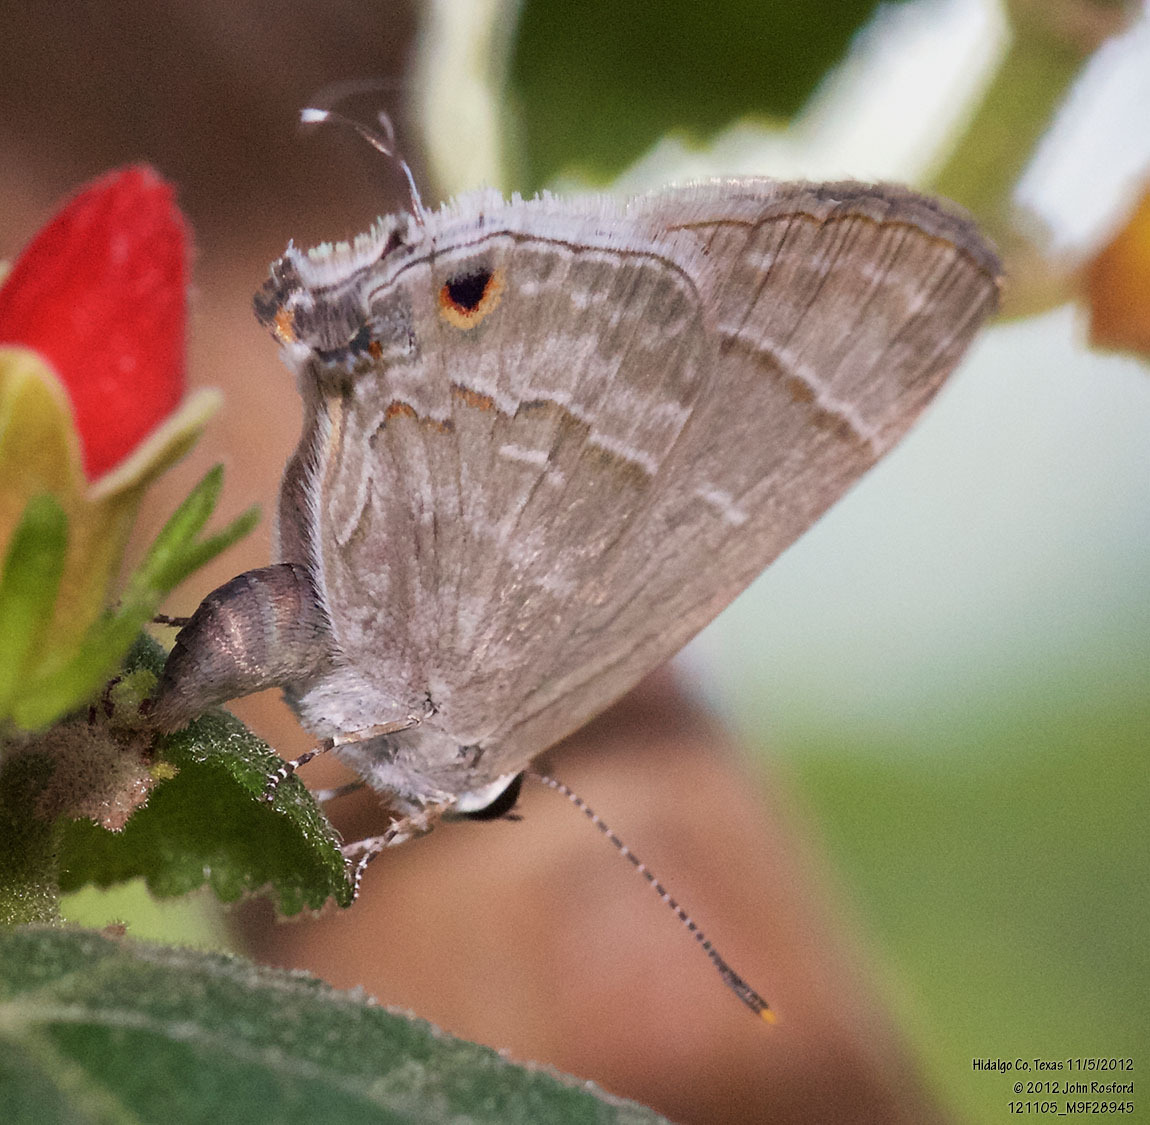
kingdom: Animalia
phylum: Arthropoda
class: Insecta
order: Lepidoptera
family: Lycaenidae
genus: Thecla
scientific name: Thecla yojoa
